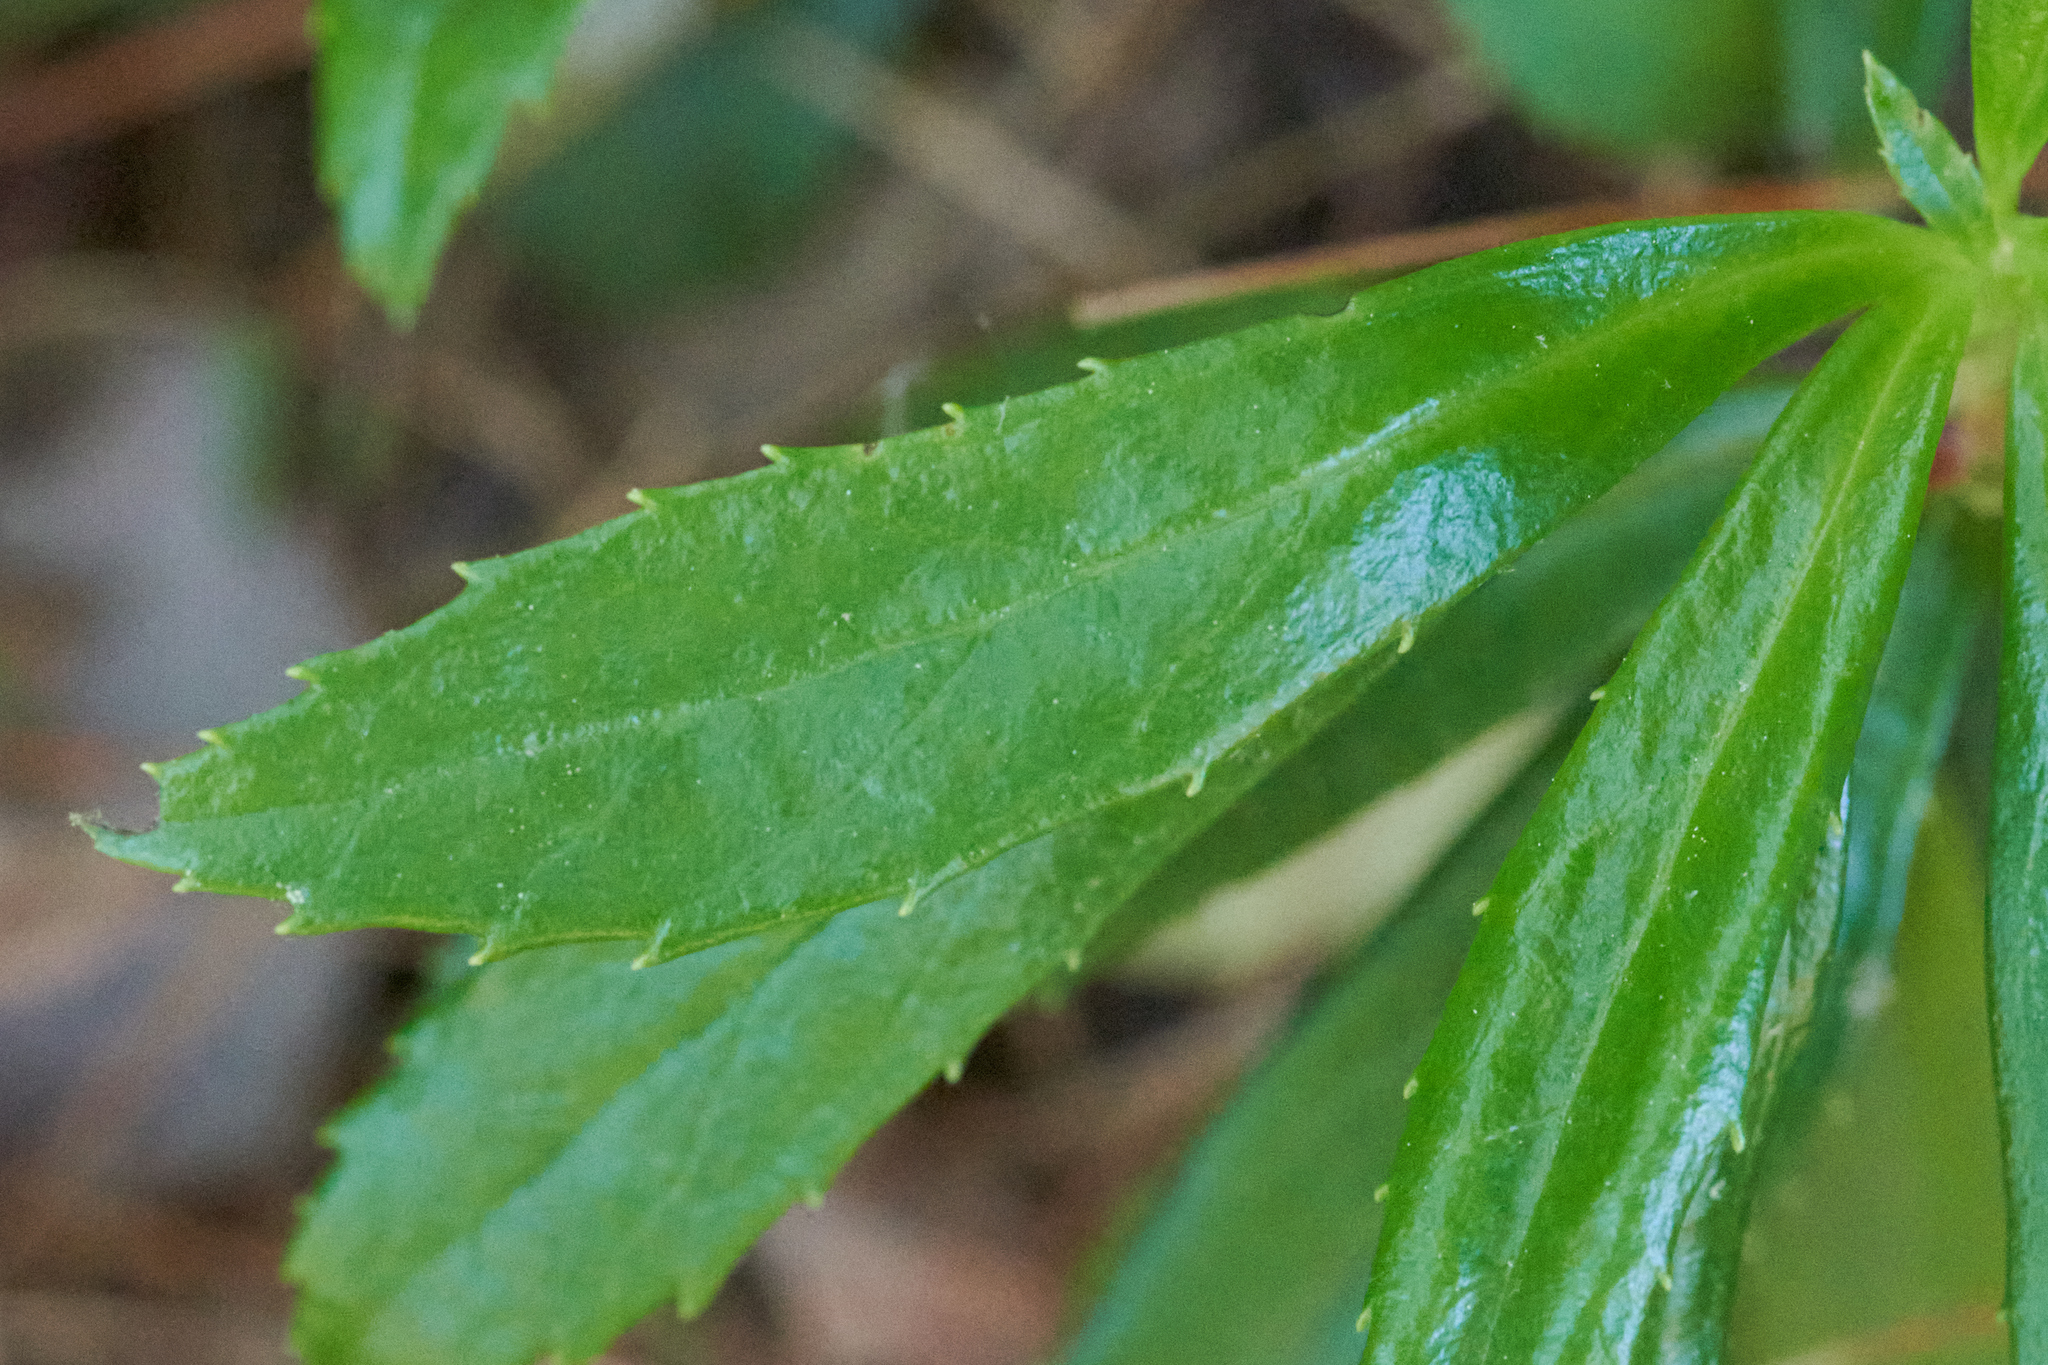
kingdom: Plantae
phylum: Tracheophyta
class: Magnoliopsida
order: Ericales
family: Ericaceae
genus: Chimaphila
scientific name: Chimaphila umbellata
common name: Pipsissewa
